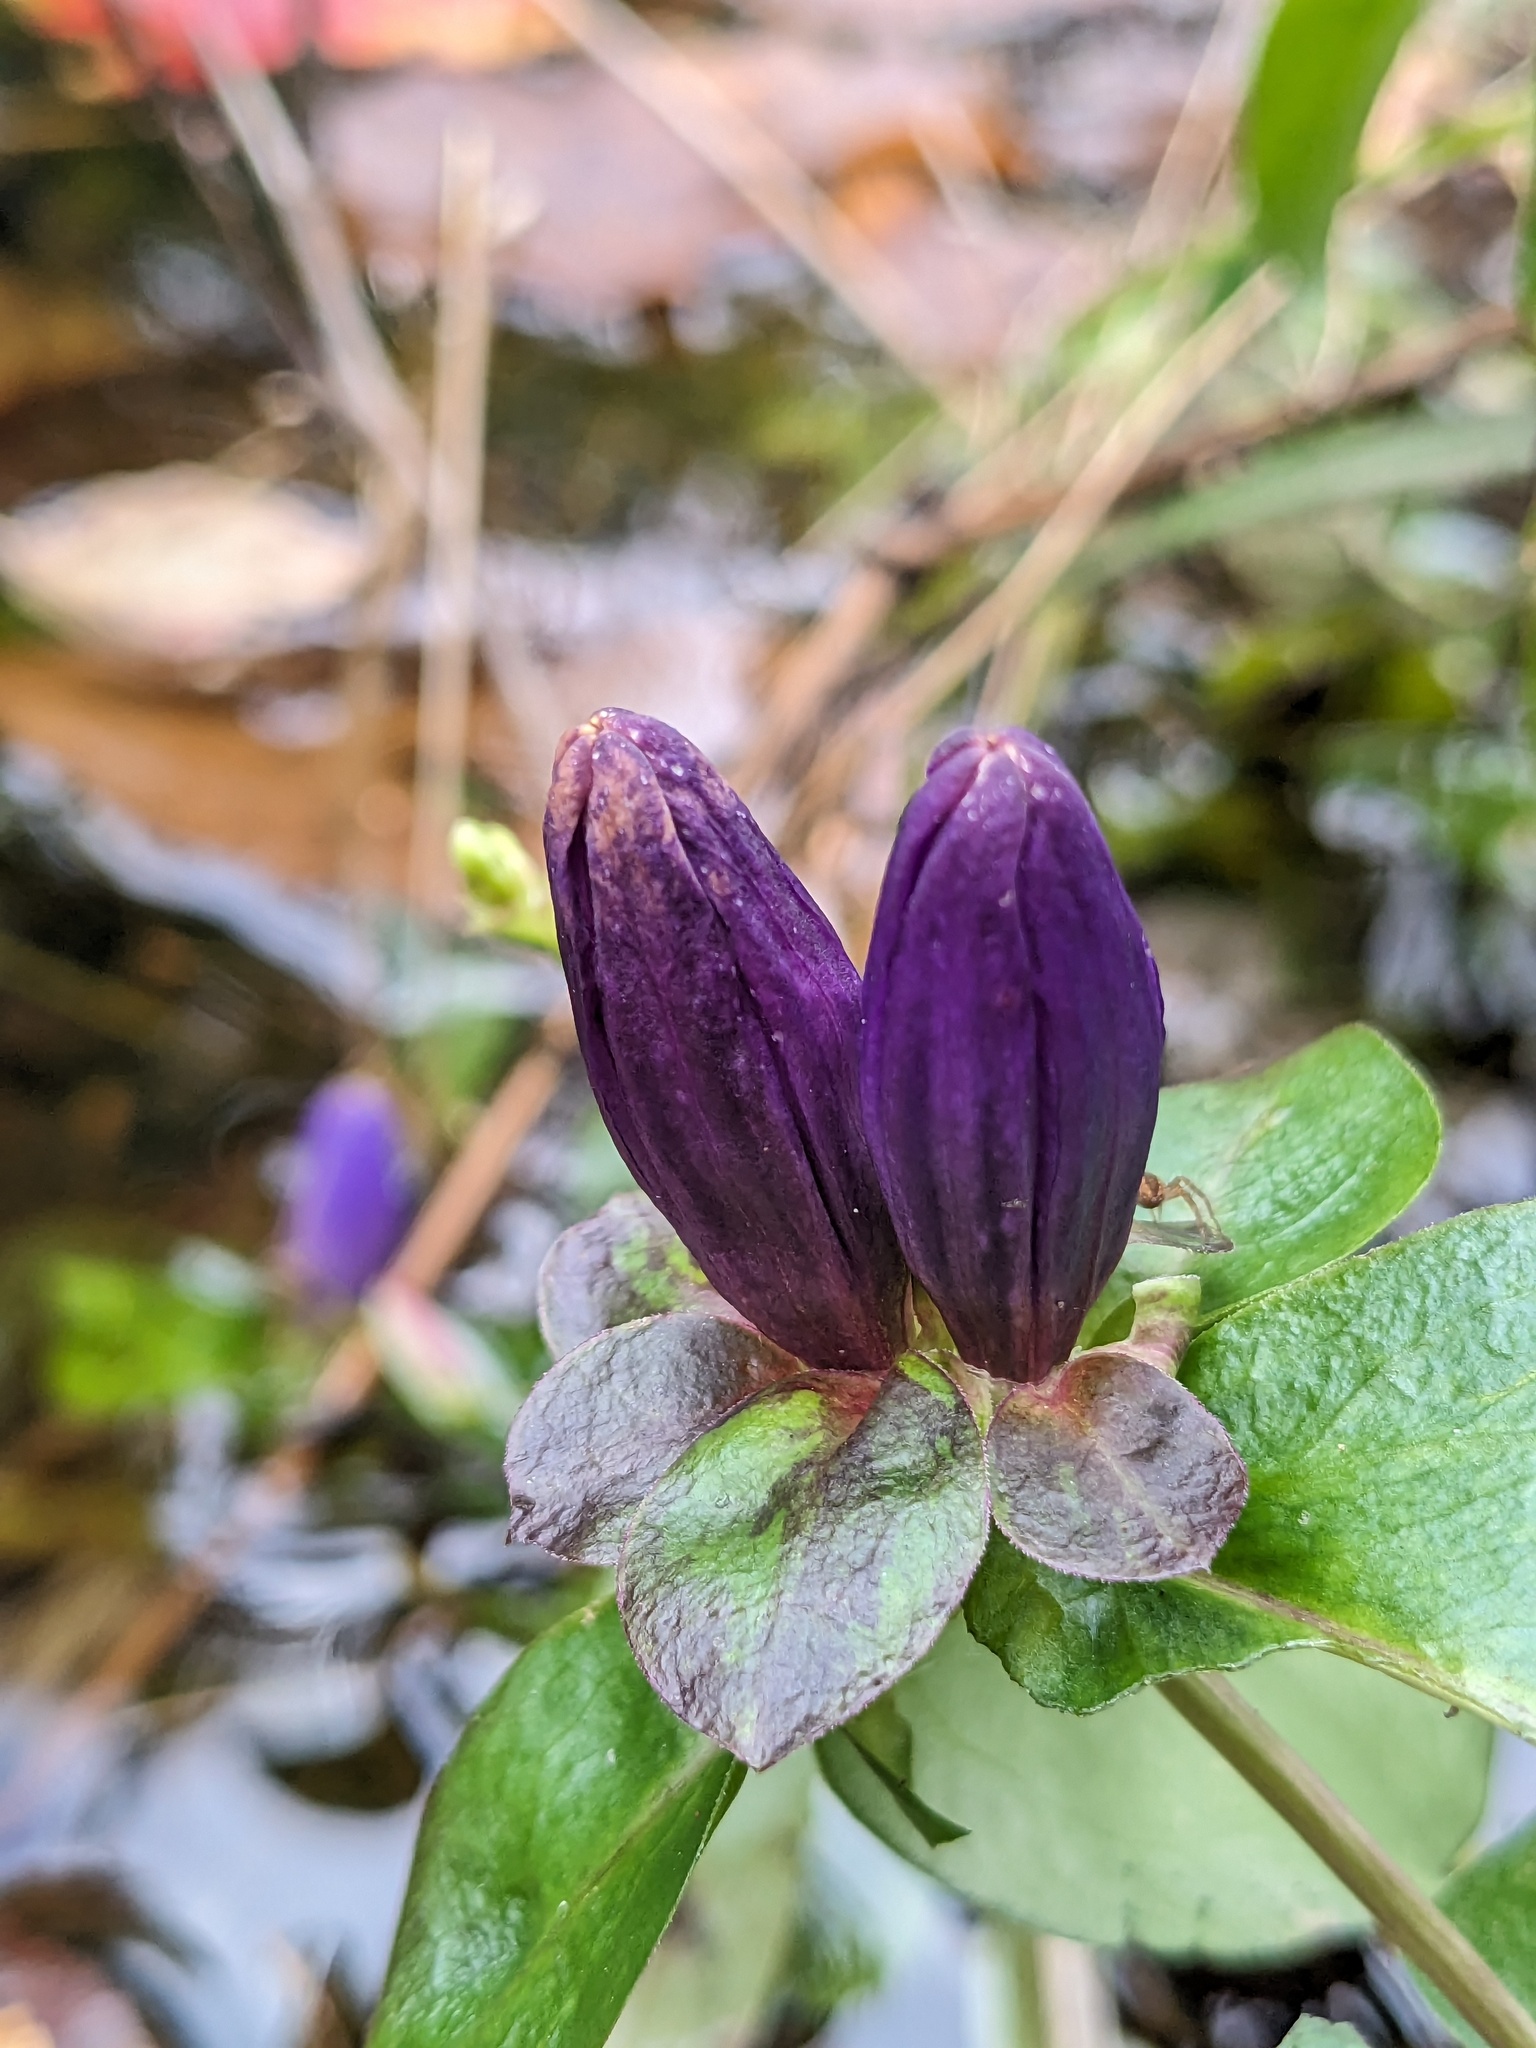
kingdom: Plantae
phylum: Tracheophyta
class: Magnoliopsida
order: Gentianales
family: Gentianaceae
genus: Gentiana
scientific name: Gentiana clausa
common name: Blind gentian
